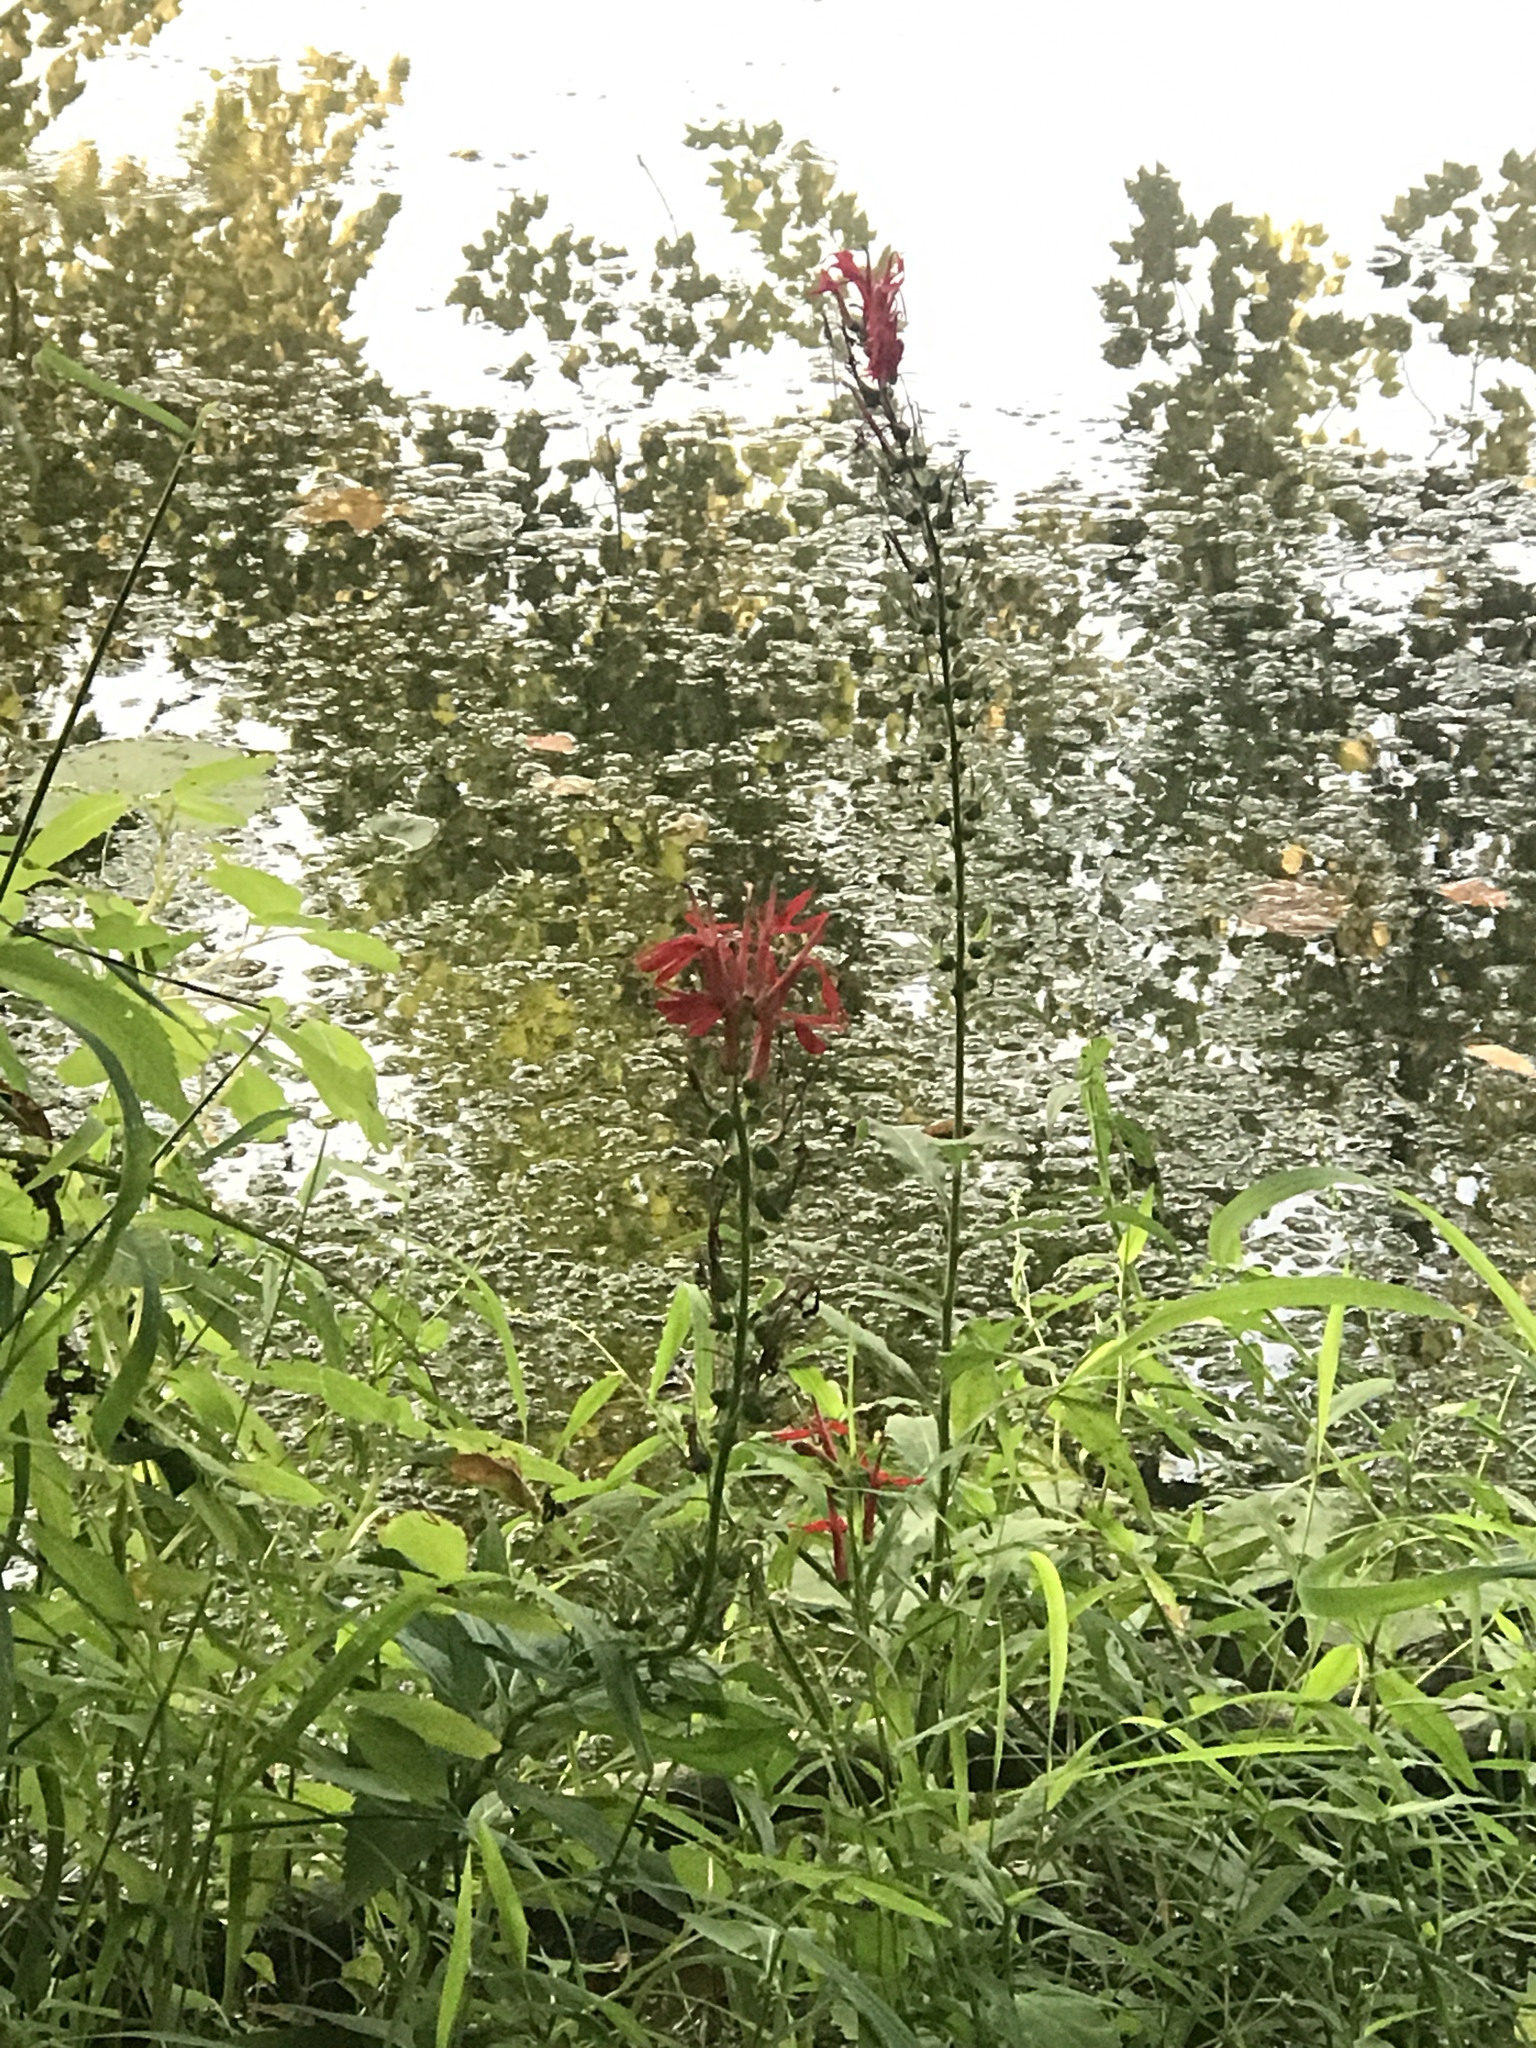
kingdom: Plantae
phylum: Tracheophyta
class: Magnoliopsida
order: Asterales
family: Campanulaceae
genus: Lobelia
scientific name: Lobelia cardinalis
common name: Cardinal flower
